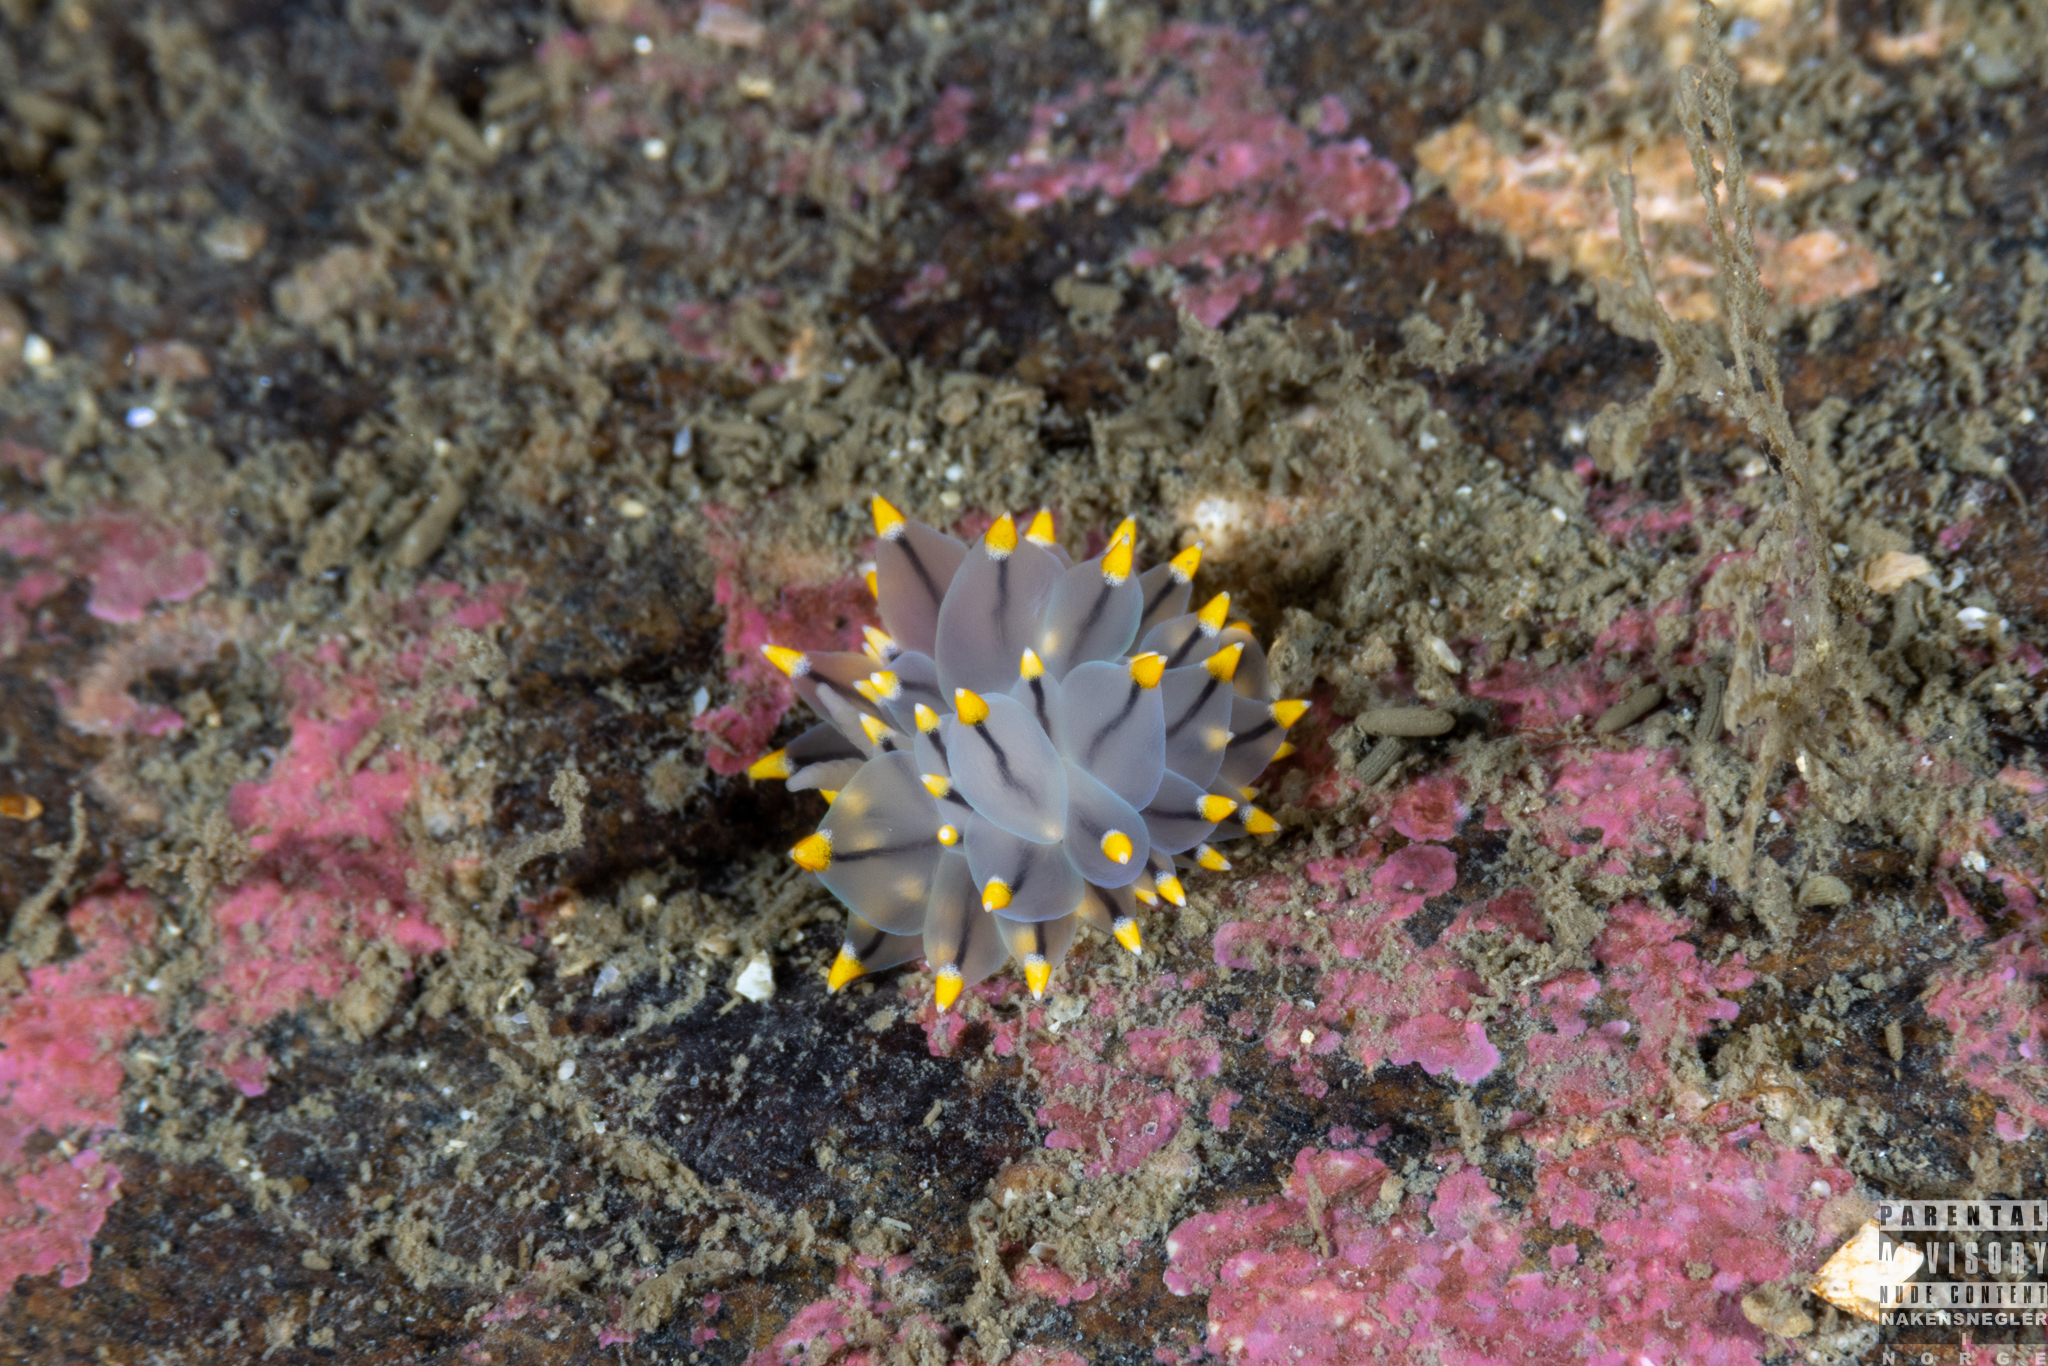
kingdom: Animalia
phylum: Mollusca
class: Gastropoda
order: Nudibranchia
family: Eubranchidae
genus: Eubranchus
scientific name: Eubranchus tricolor
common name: Painted balloon aeolis
